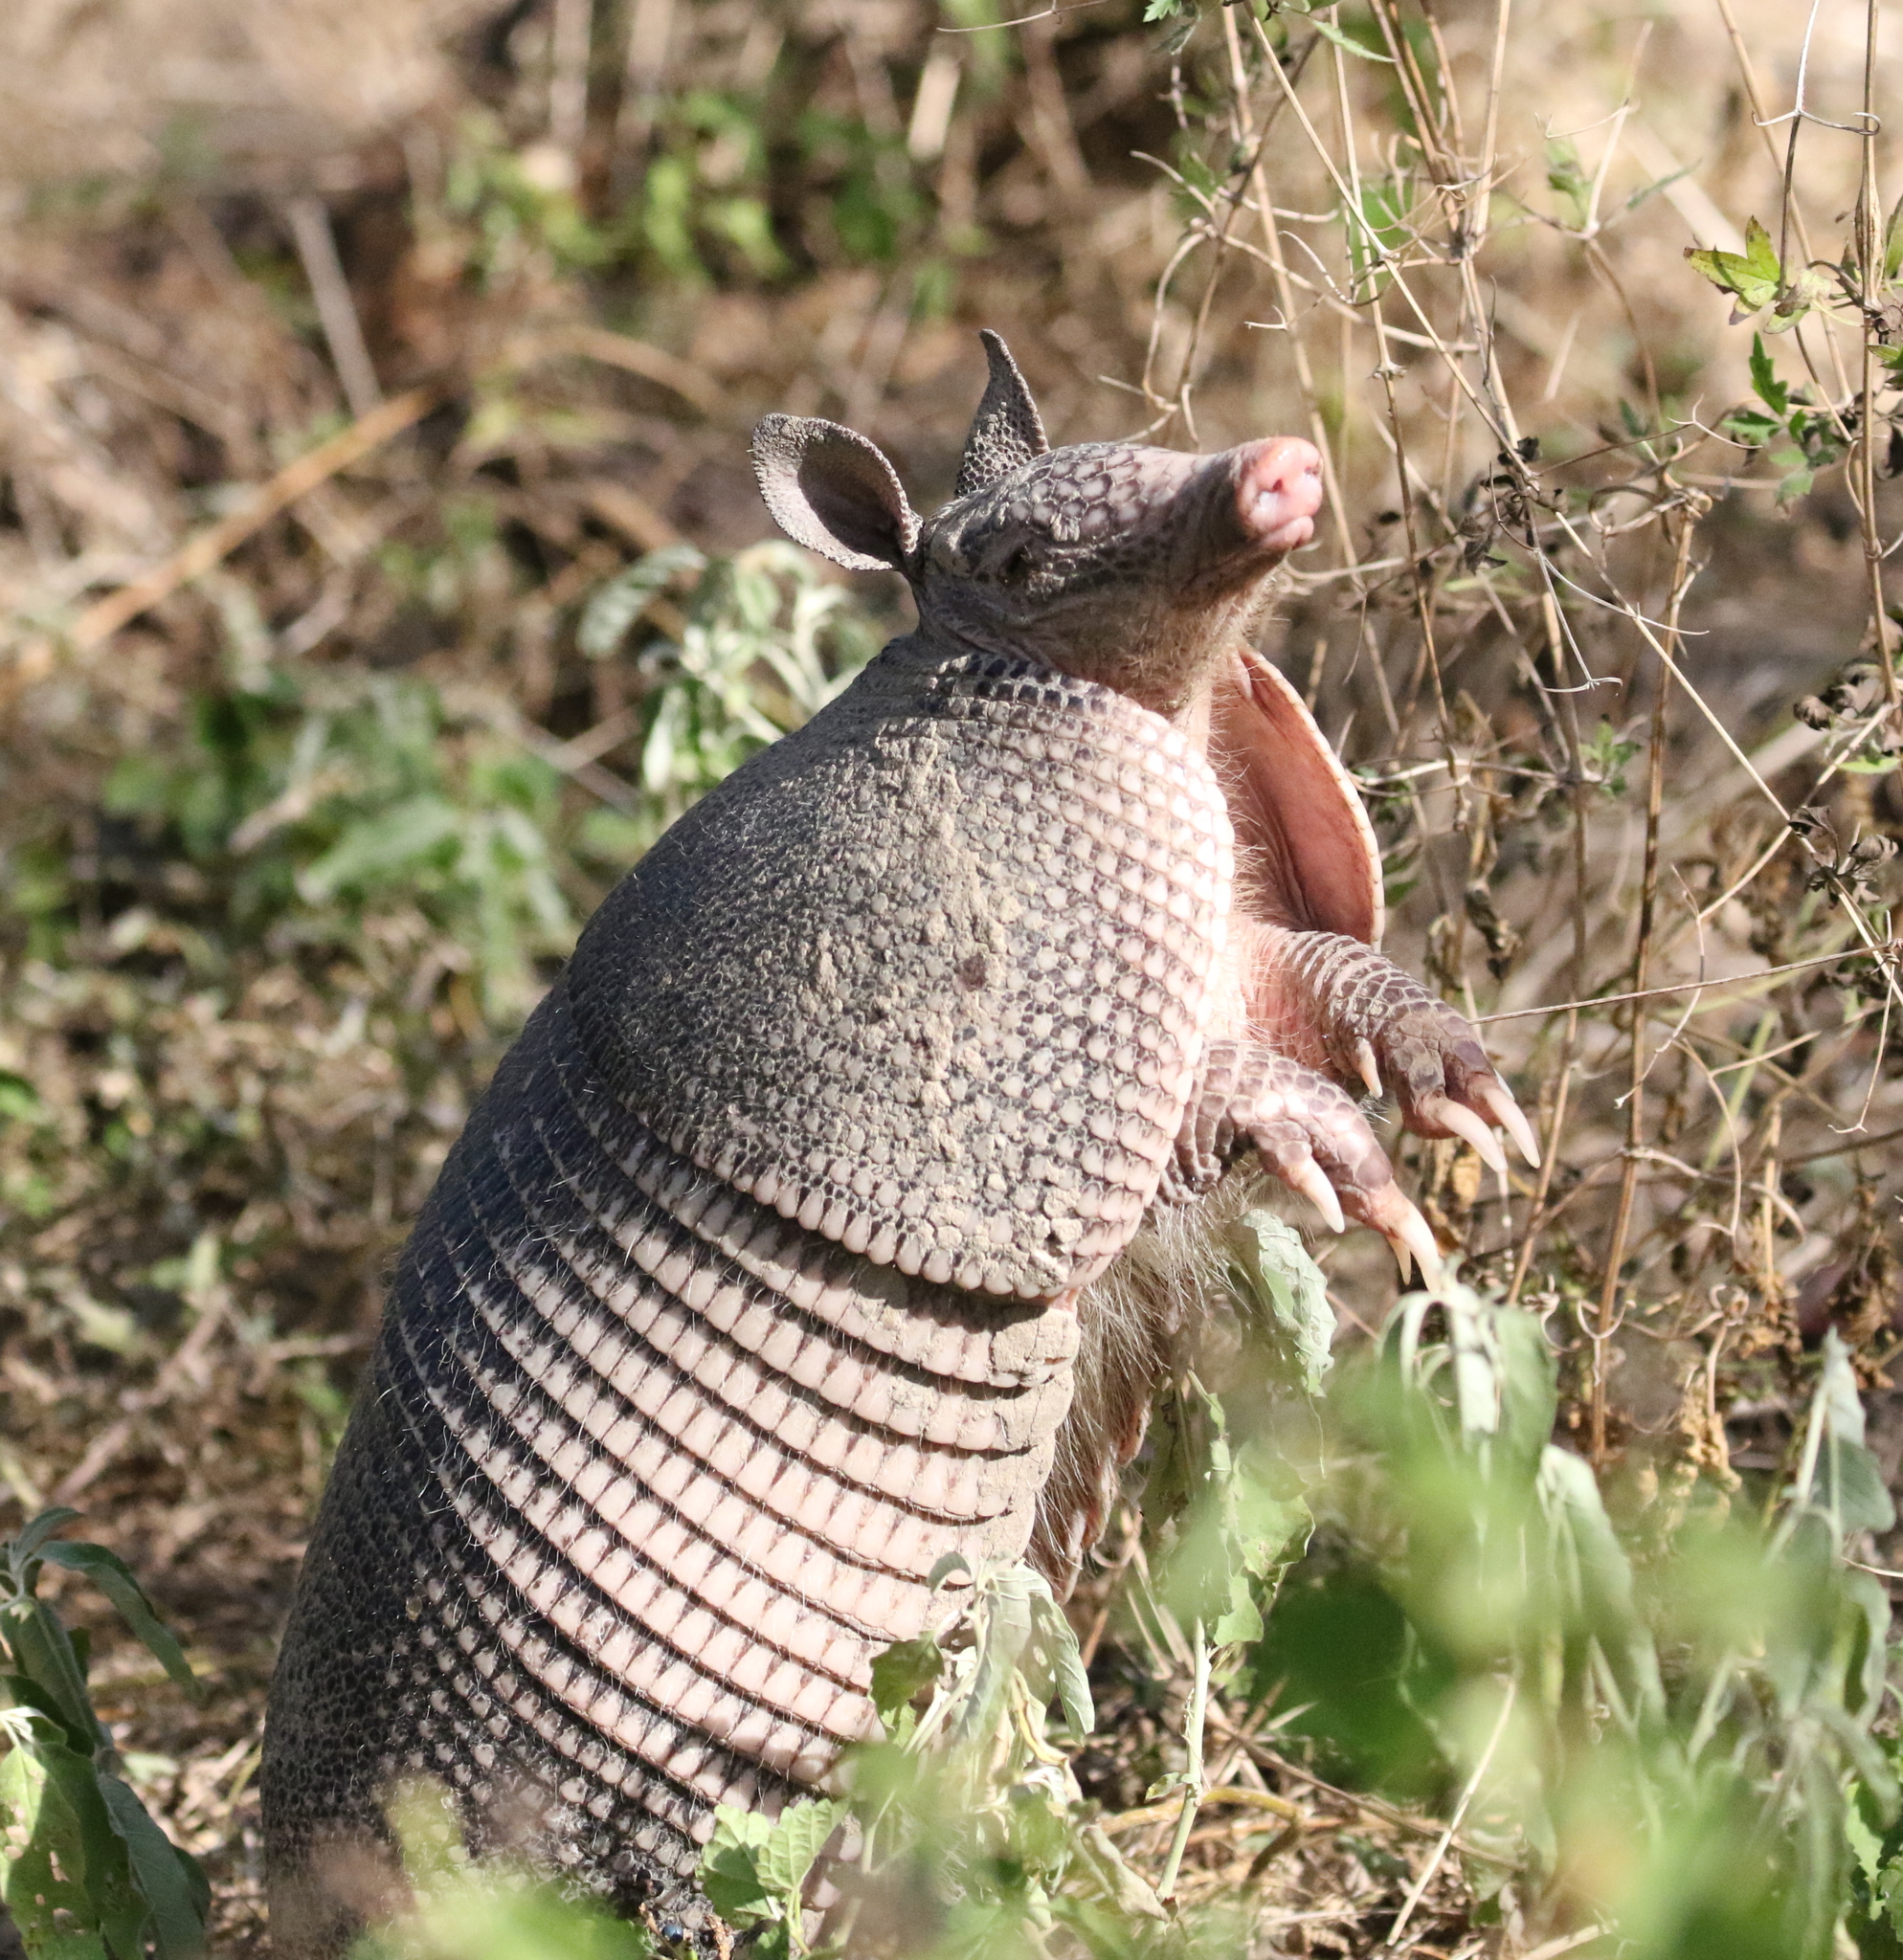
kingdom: Animalia
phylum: Chordata
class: Mammalia
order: Cingulata
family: Dasypodidae
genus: Dasypus
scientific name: Dasypus novemcinctus
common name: Nine-banded armadillo
